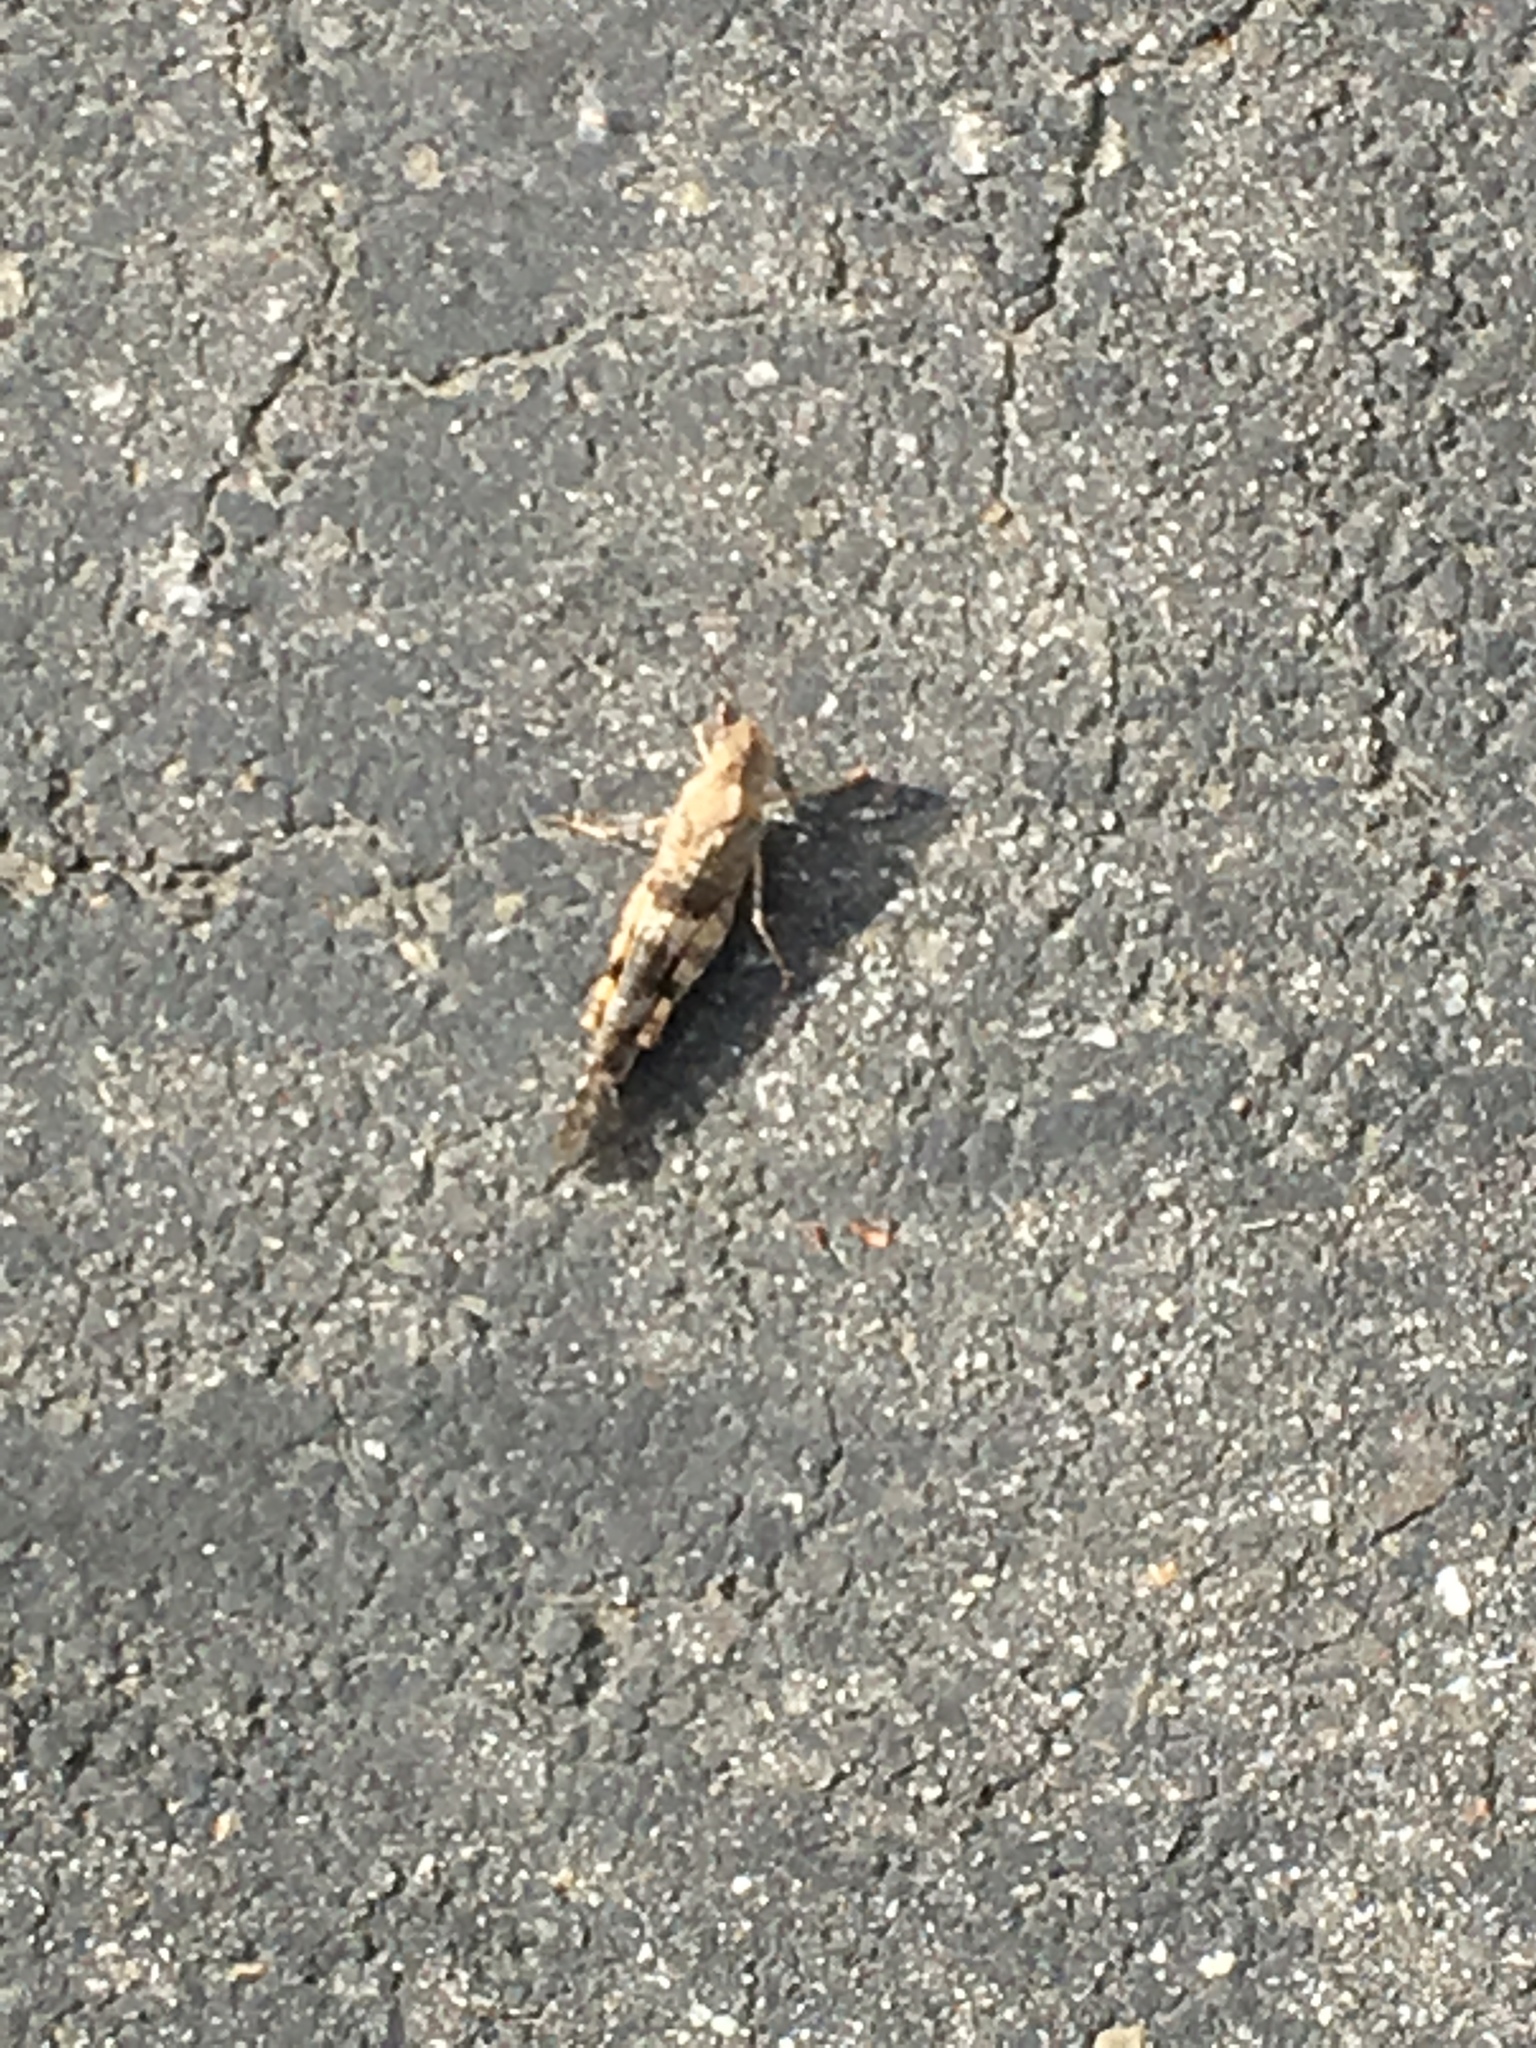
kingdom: Animalia
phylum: Arthropoda
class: Insecta
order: Orthoptera
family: Acrididae
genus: Trimerotropis
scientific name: Trimerotropis pallidipennis
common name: Pallid-winged grasshopper
